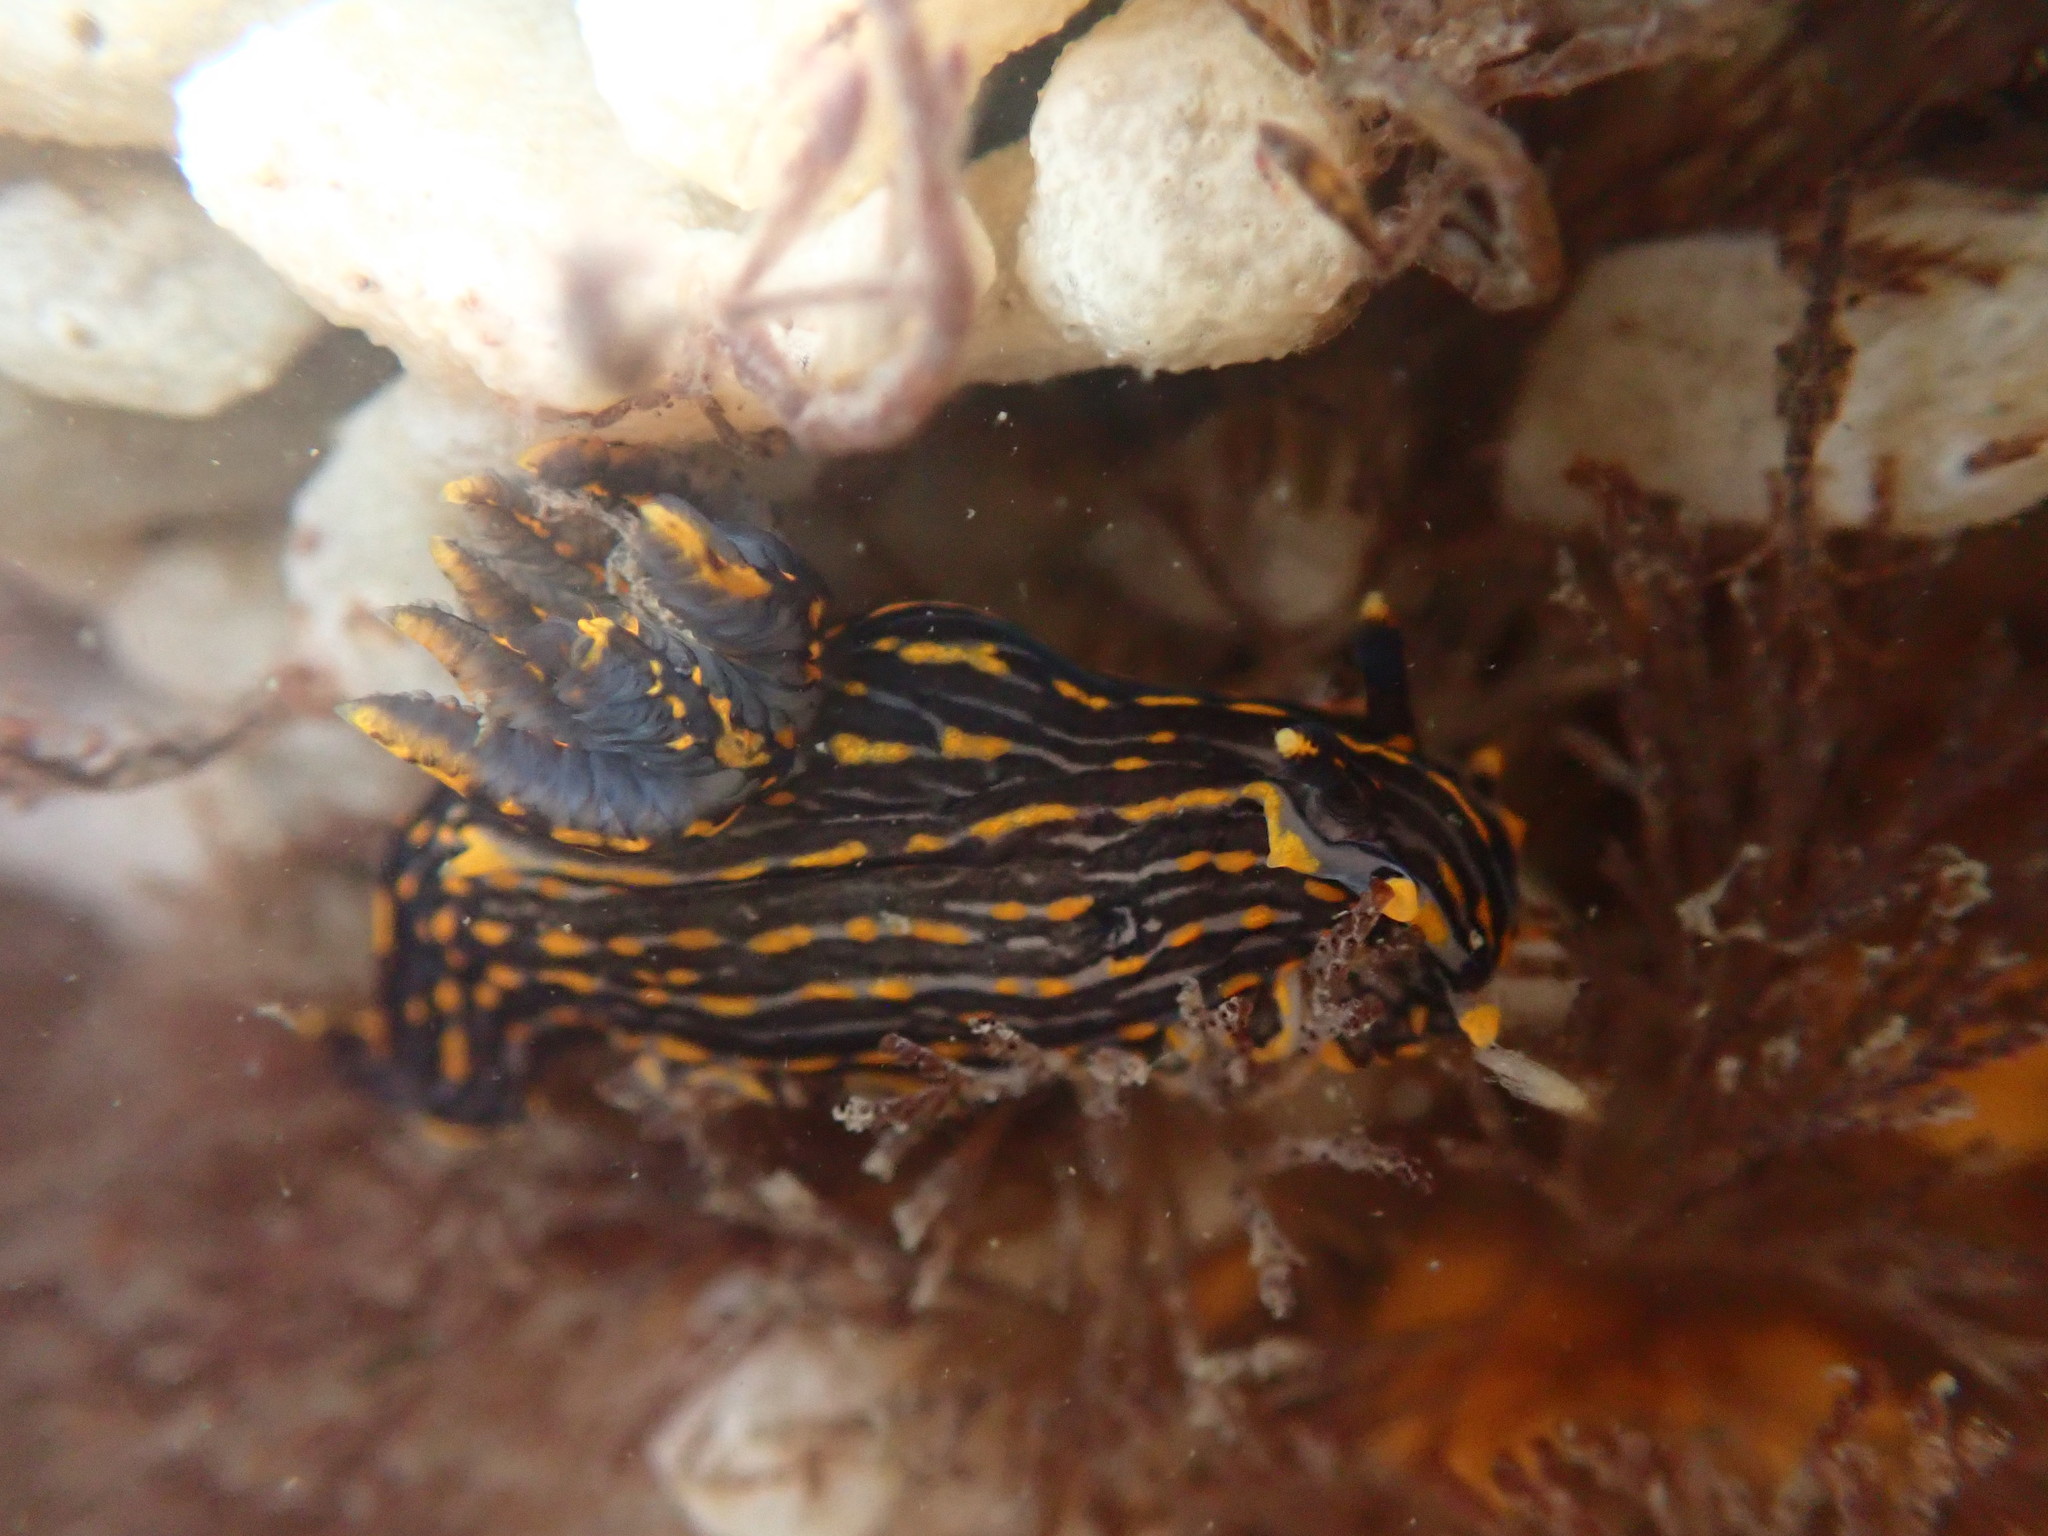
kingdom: Animalia
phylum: Mollusca
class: Gastropoda
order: Nudibranchia
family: Polyceridae
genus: Polycera
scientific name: Polycera atra
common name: Orange-spike polycera
